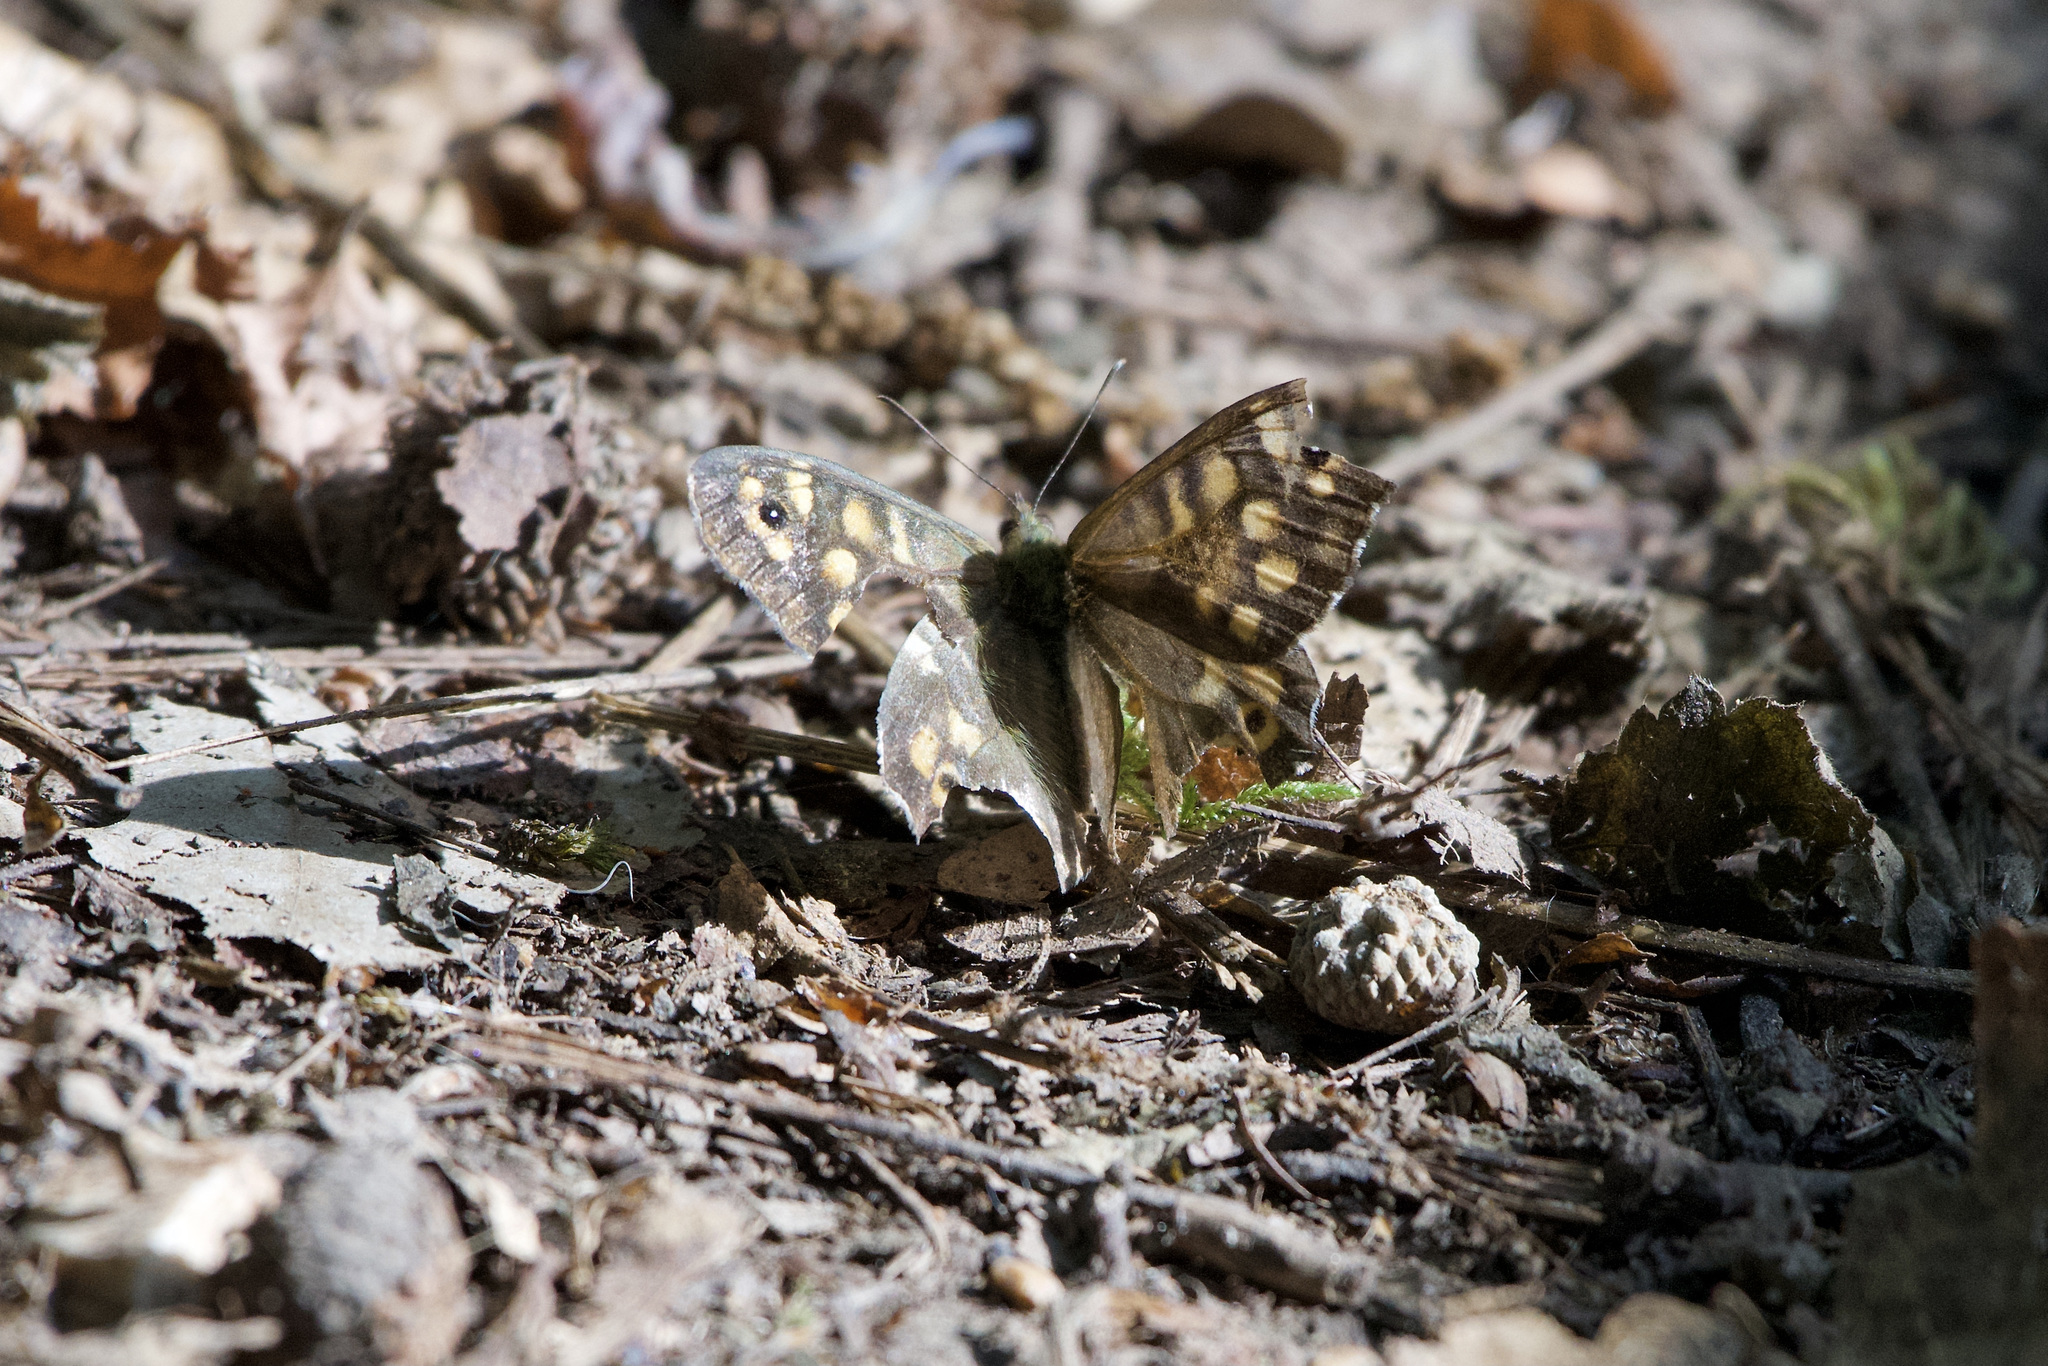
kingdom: Animalia
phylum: Arthropoda
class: Insecta
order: Lepidoptera
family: Nymphalidae
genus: Pararge
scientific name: Pararge aegeria
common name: Speckled wood
